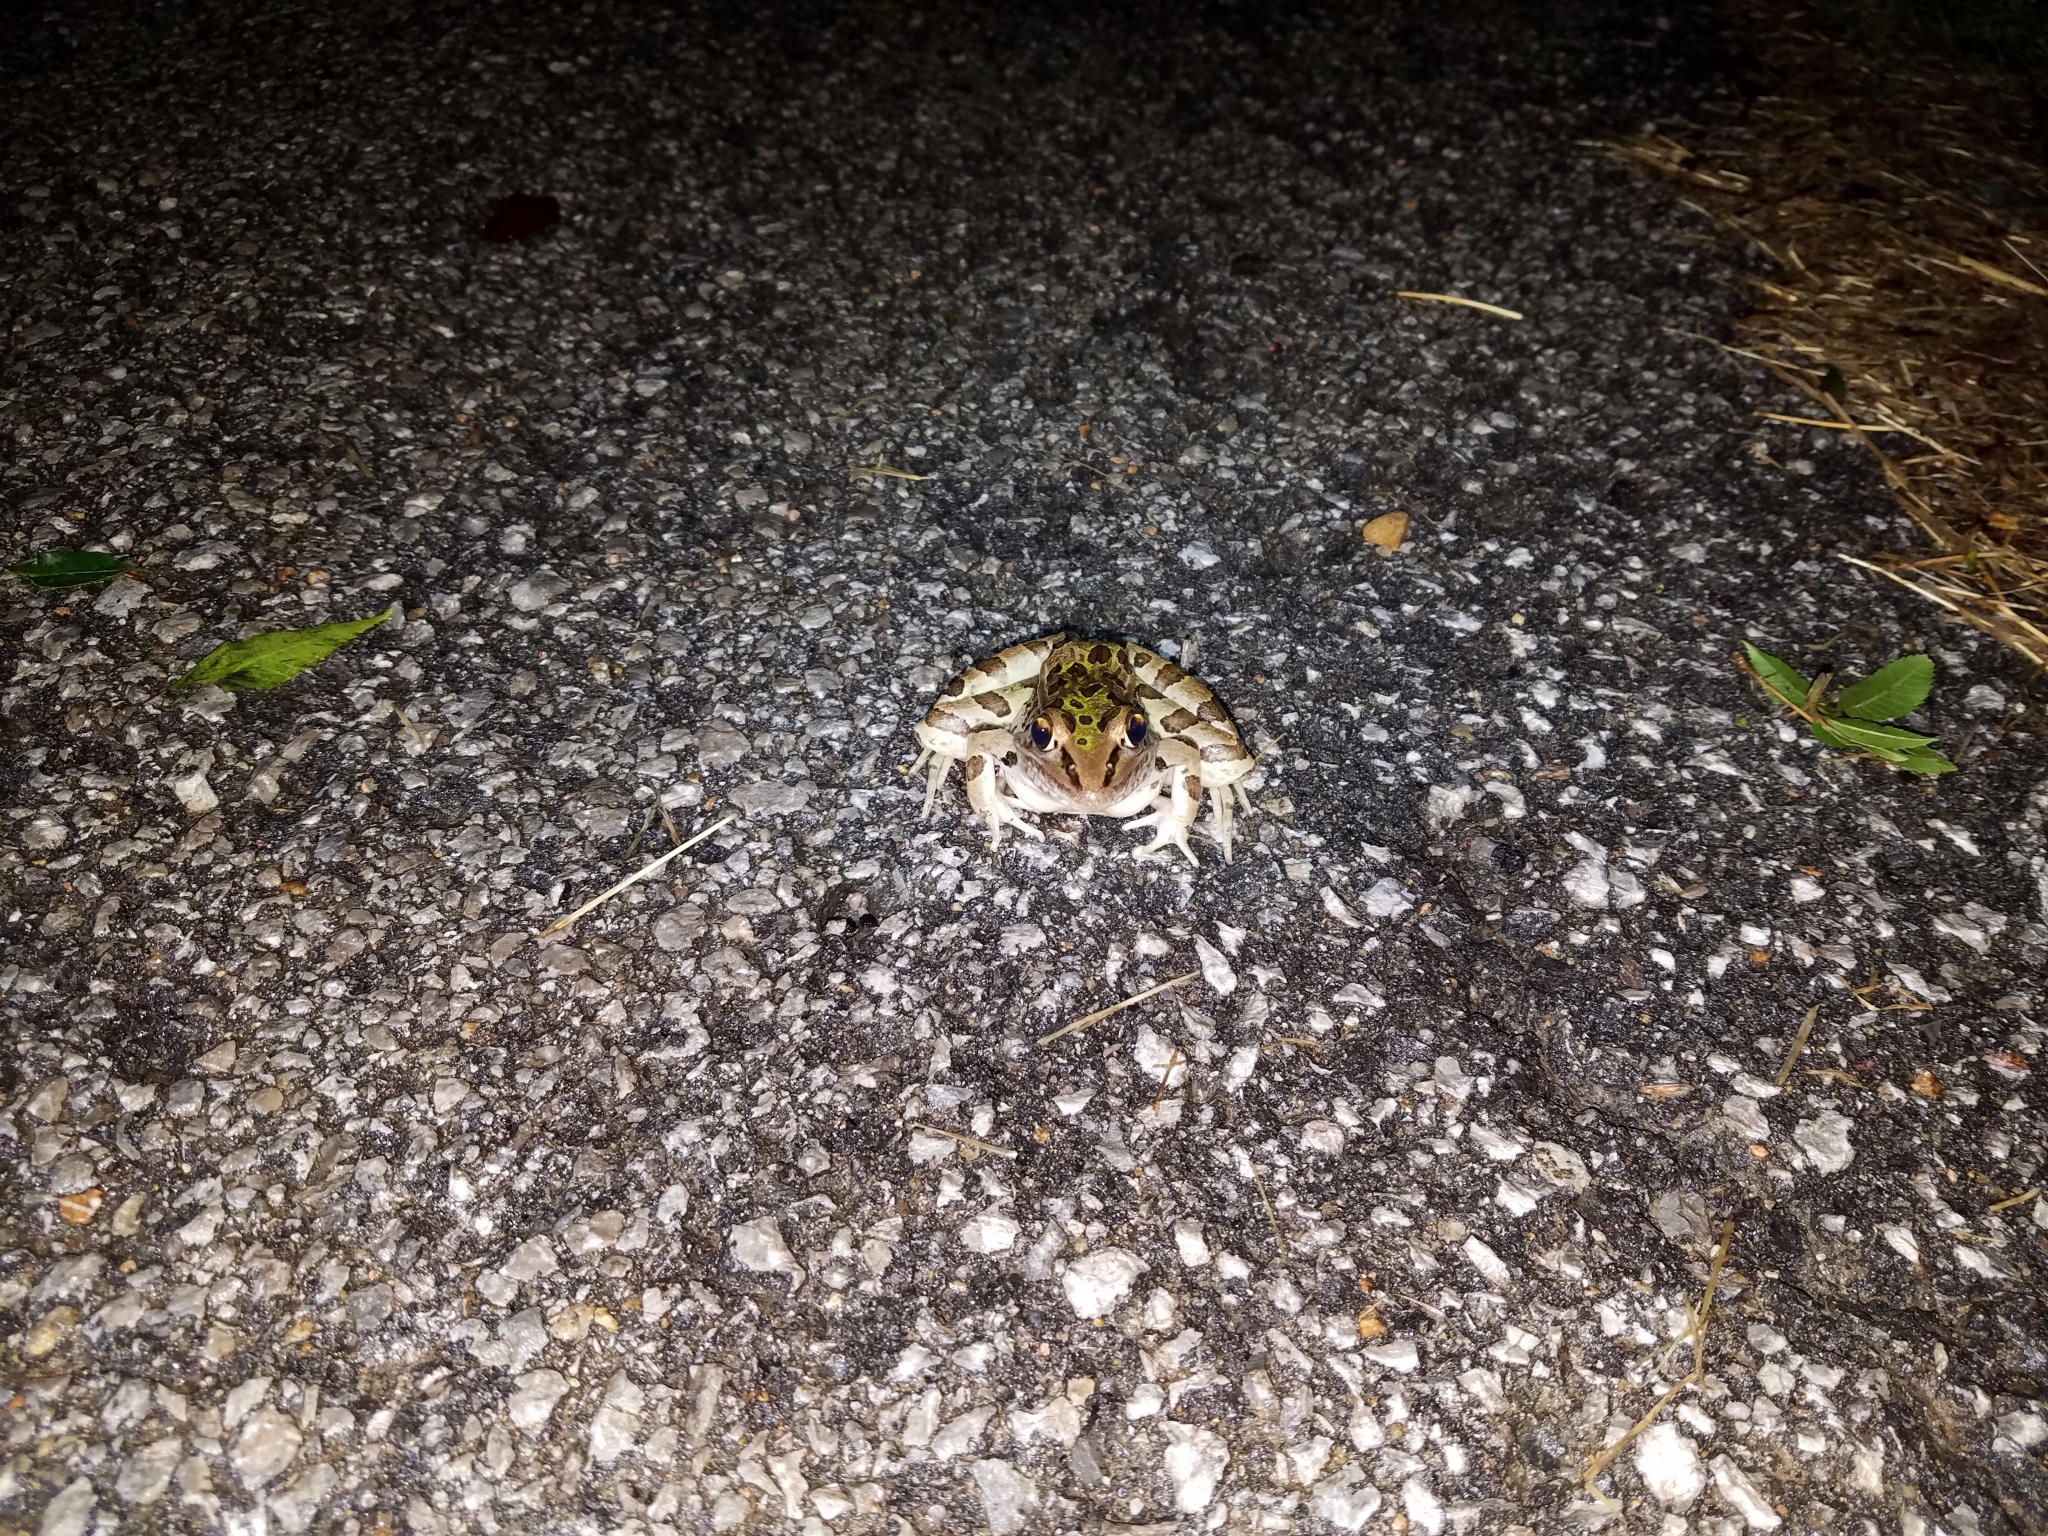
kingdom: Animalia
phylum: Chordata
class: Amphibia
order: Anura
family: Ranidae
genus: Lithobates
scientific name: Lithobates sphenocephalus
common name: Southern leopard frog
